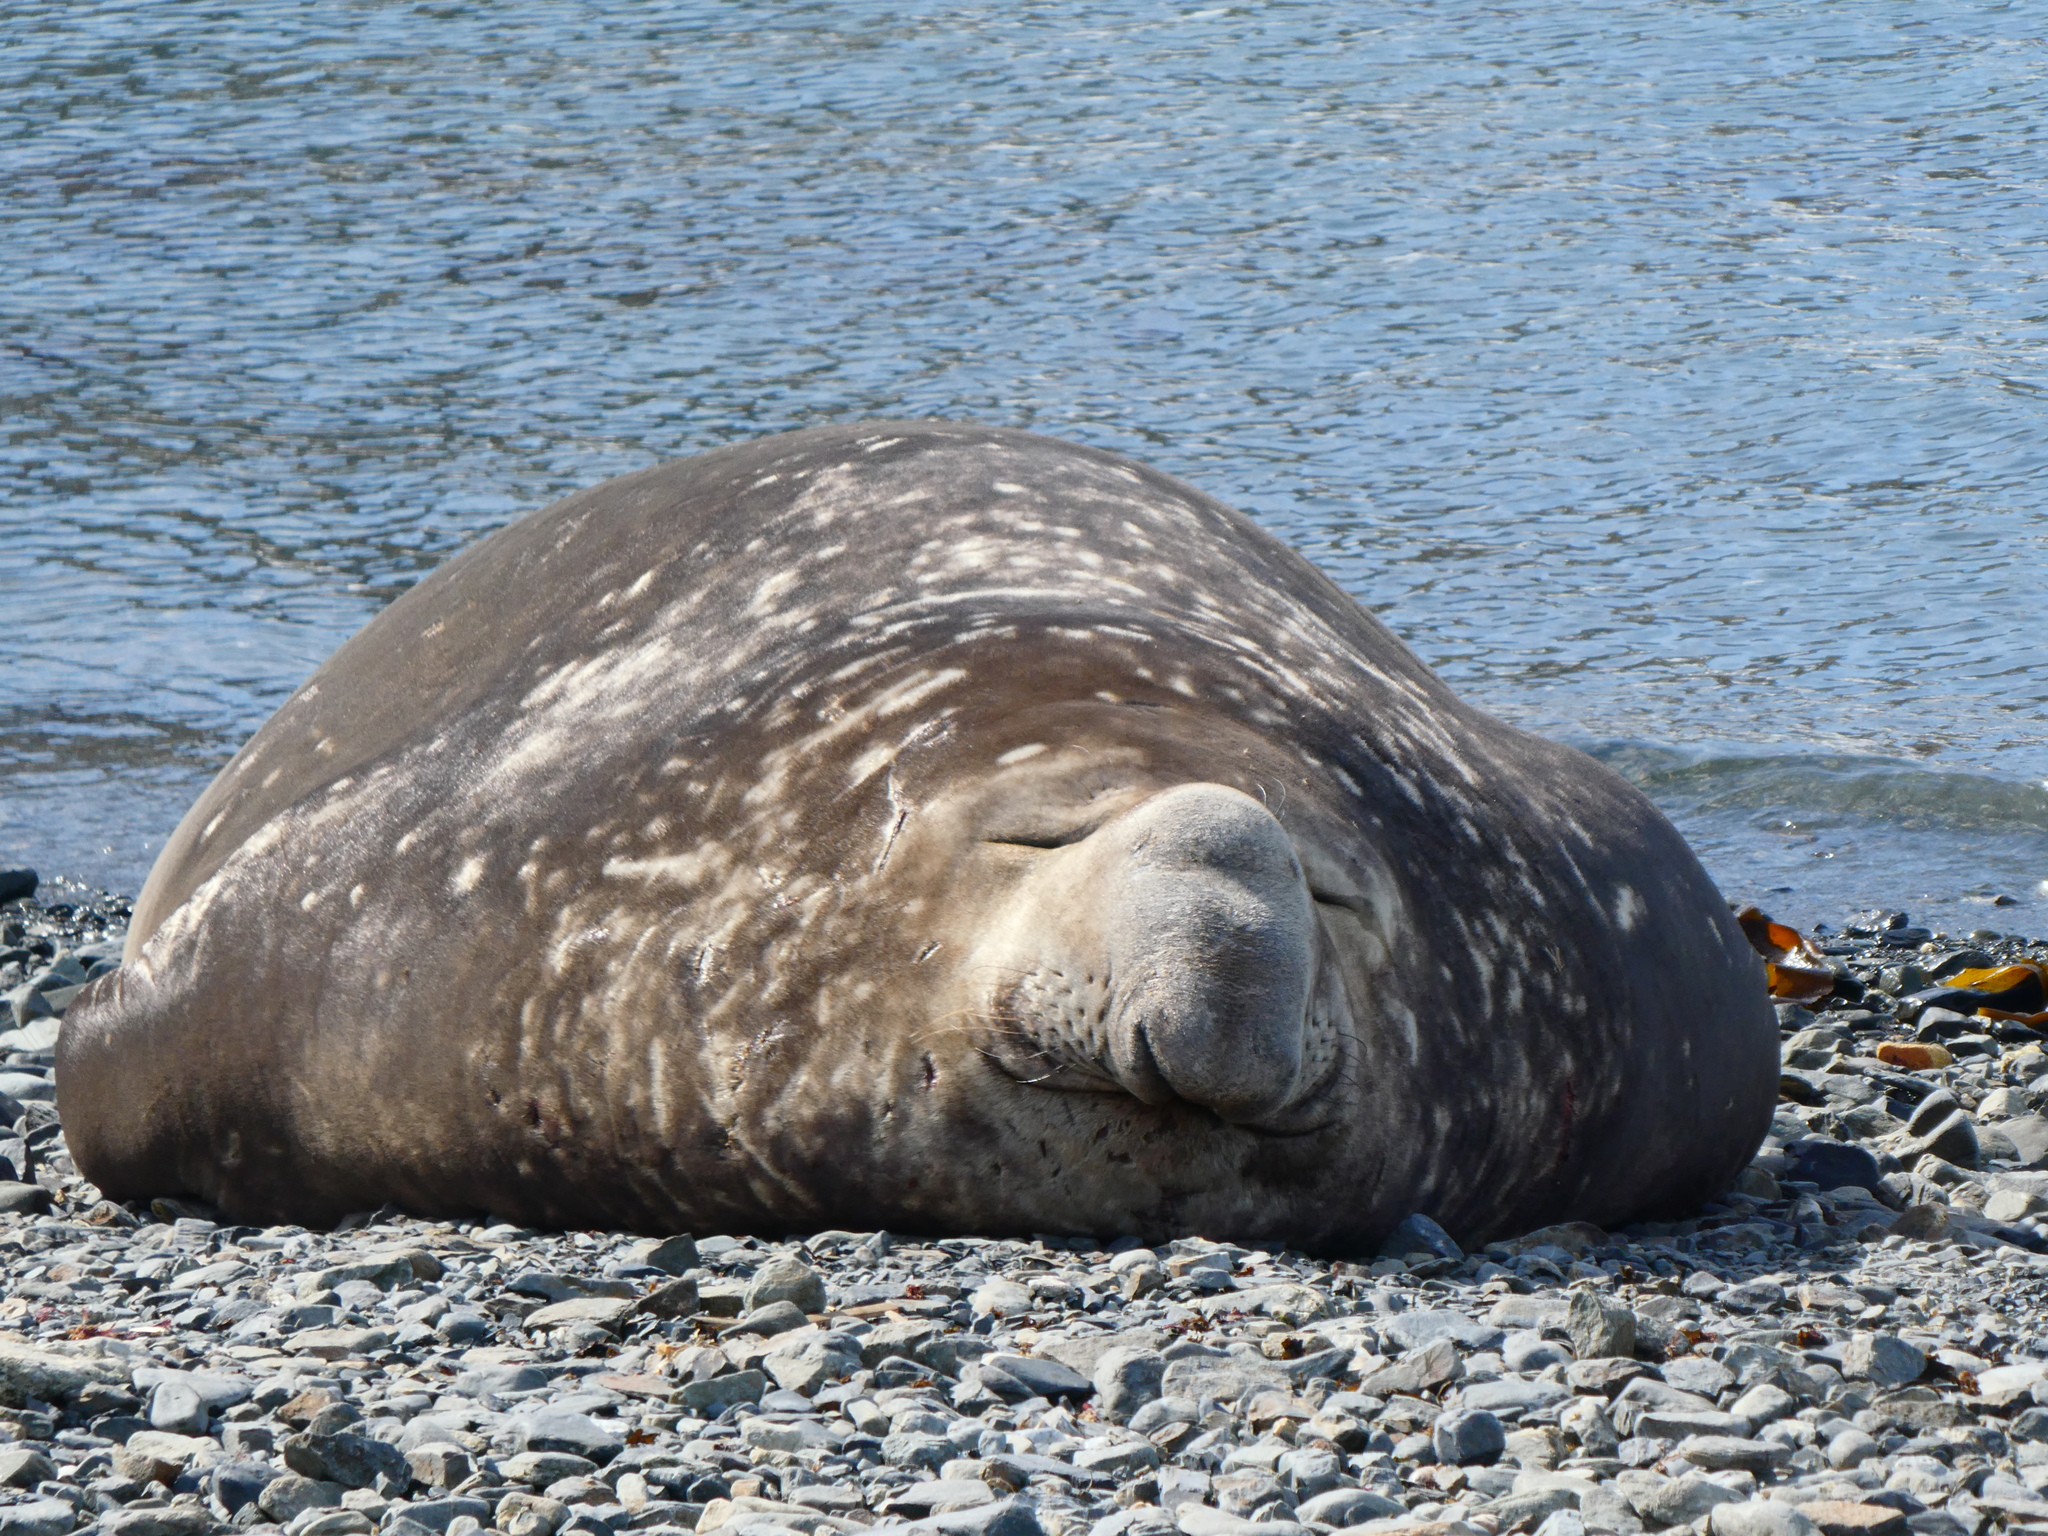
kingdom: Animalia
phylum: Chordata
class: Mammalia
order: Carnivora
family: Phocidae
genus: Mirounga
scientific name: Mirounga leonina
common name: Southern elephant seal
